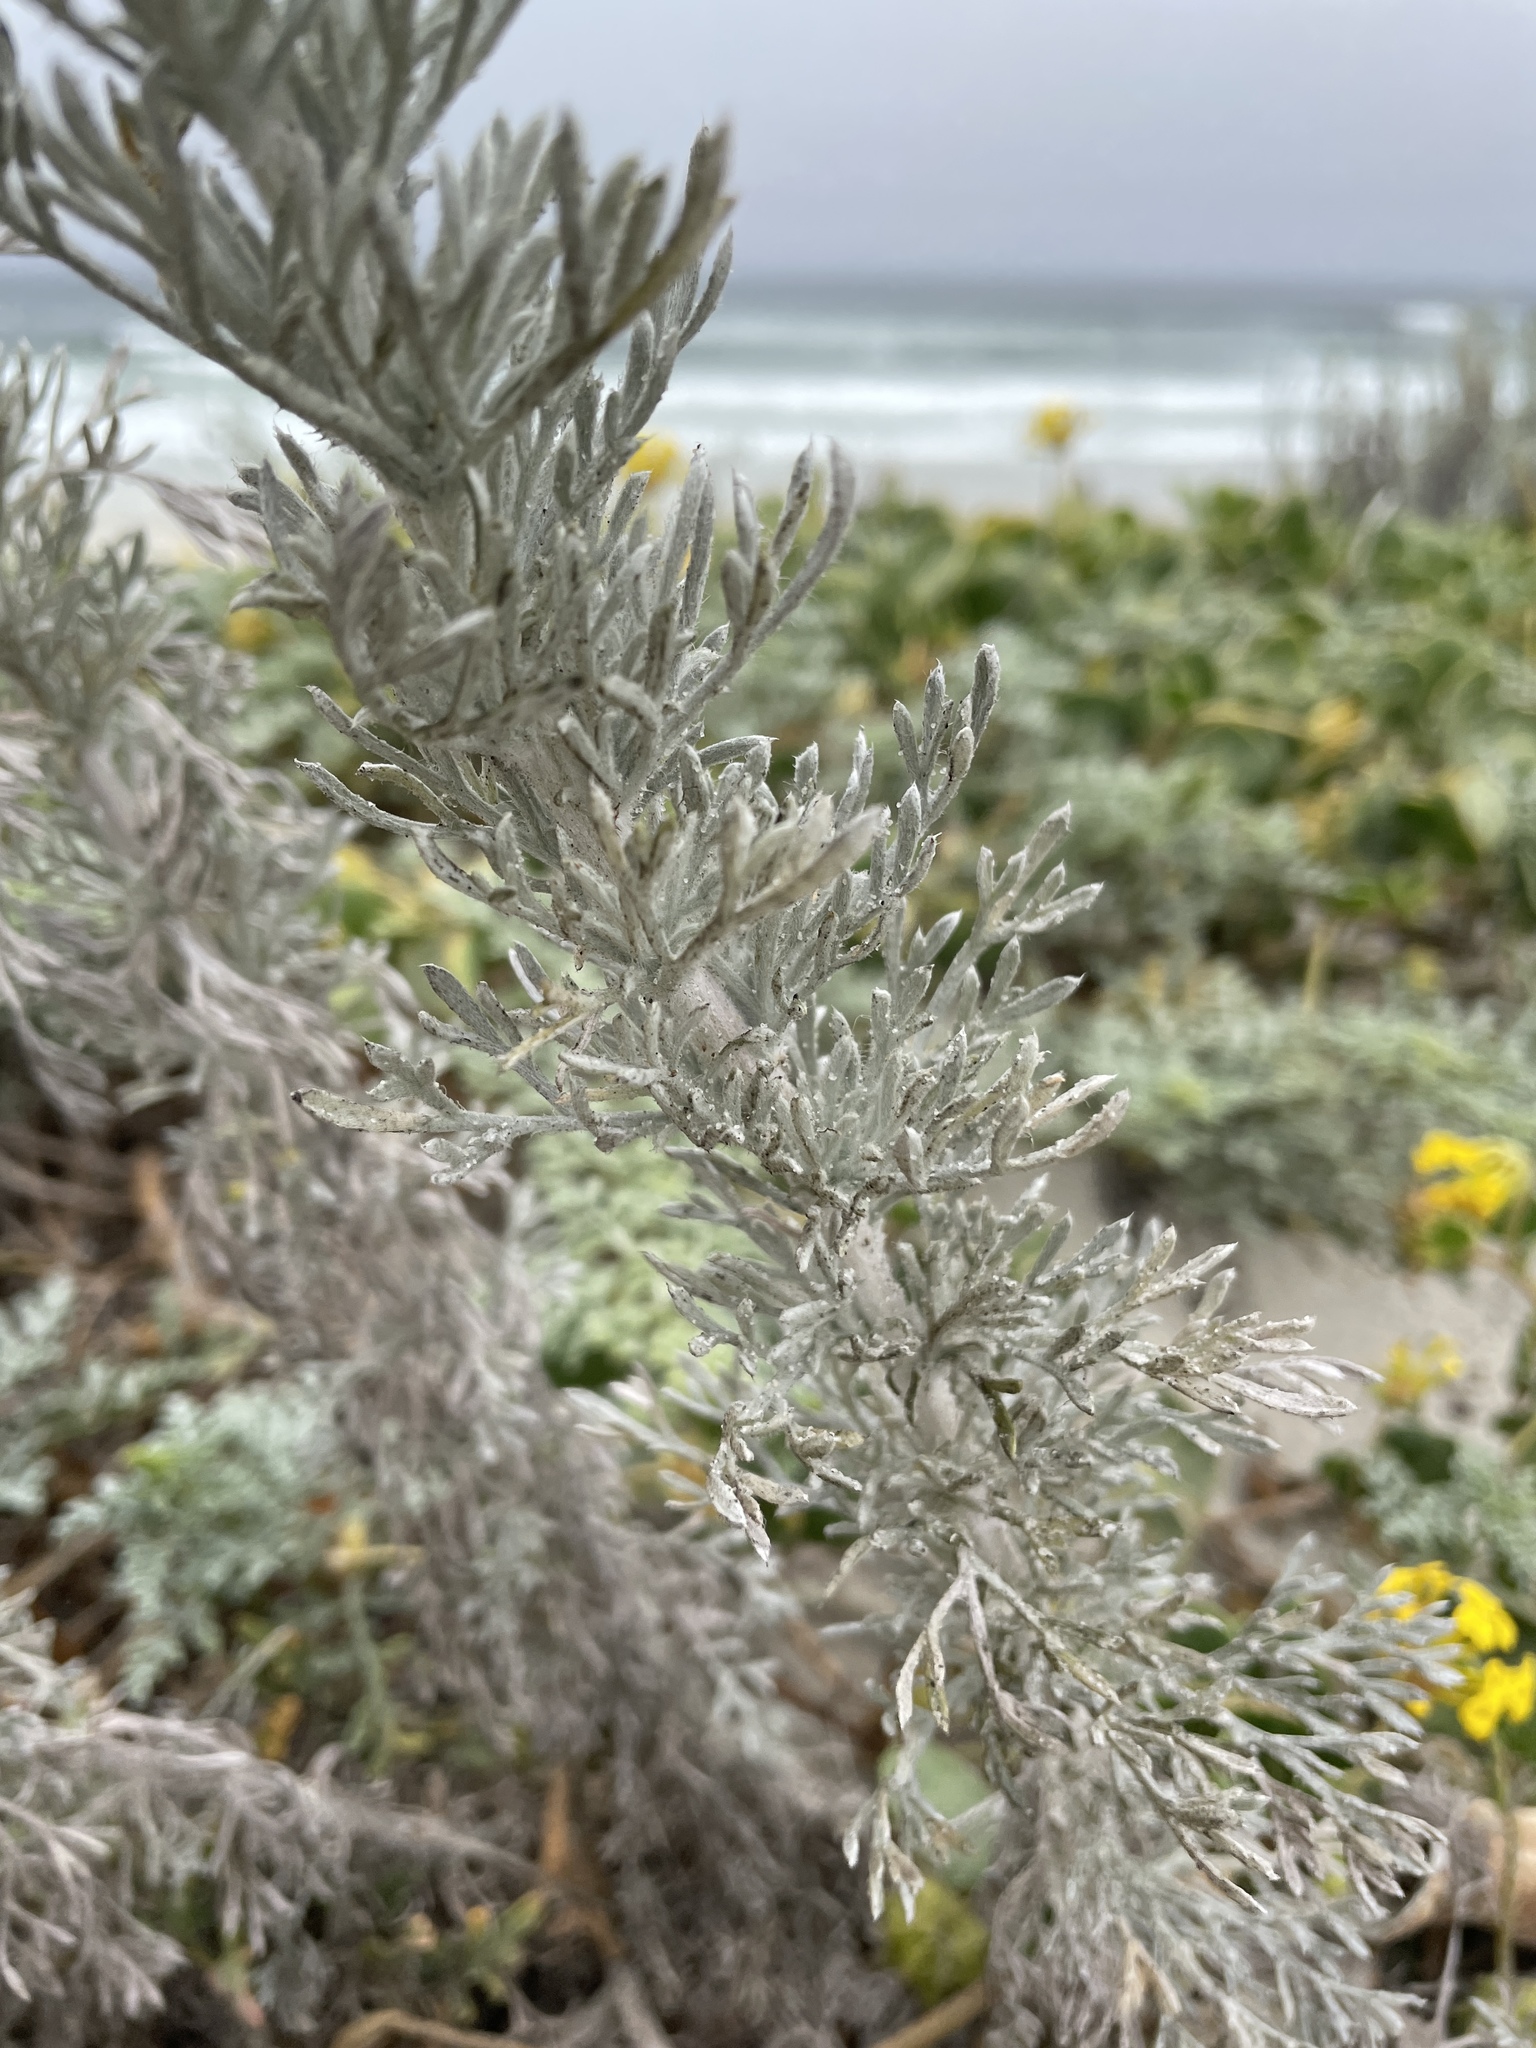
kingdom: Plantae
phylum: Tracheophyta
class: Magnoliopsida
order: Asterales
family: Asteraceae
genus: Artemisia
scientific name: Artemisia pycnocephala
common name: Coastal sagewort
